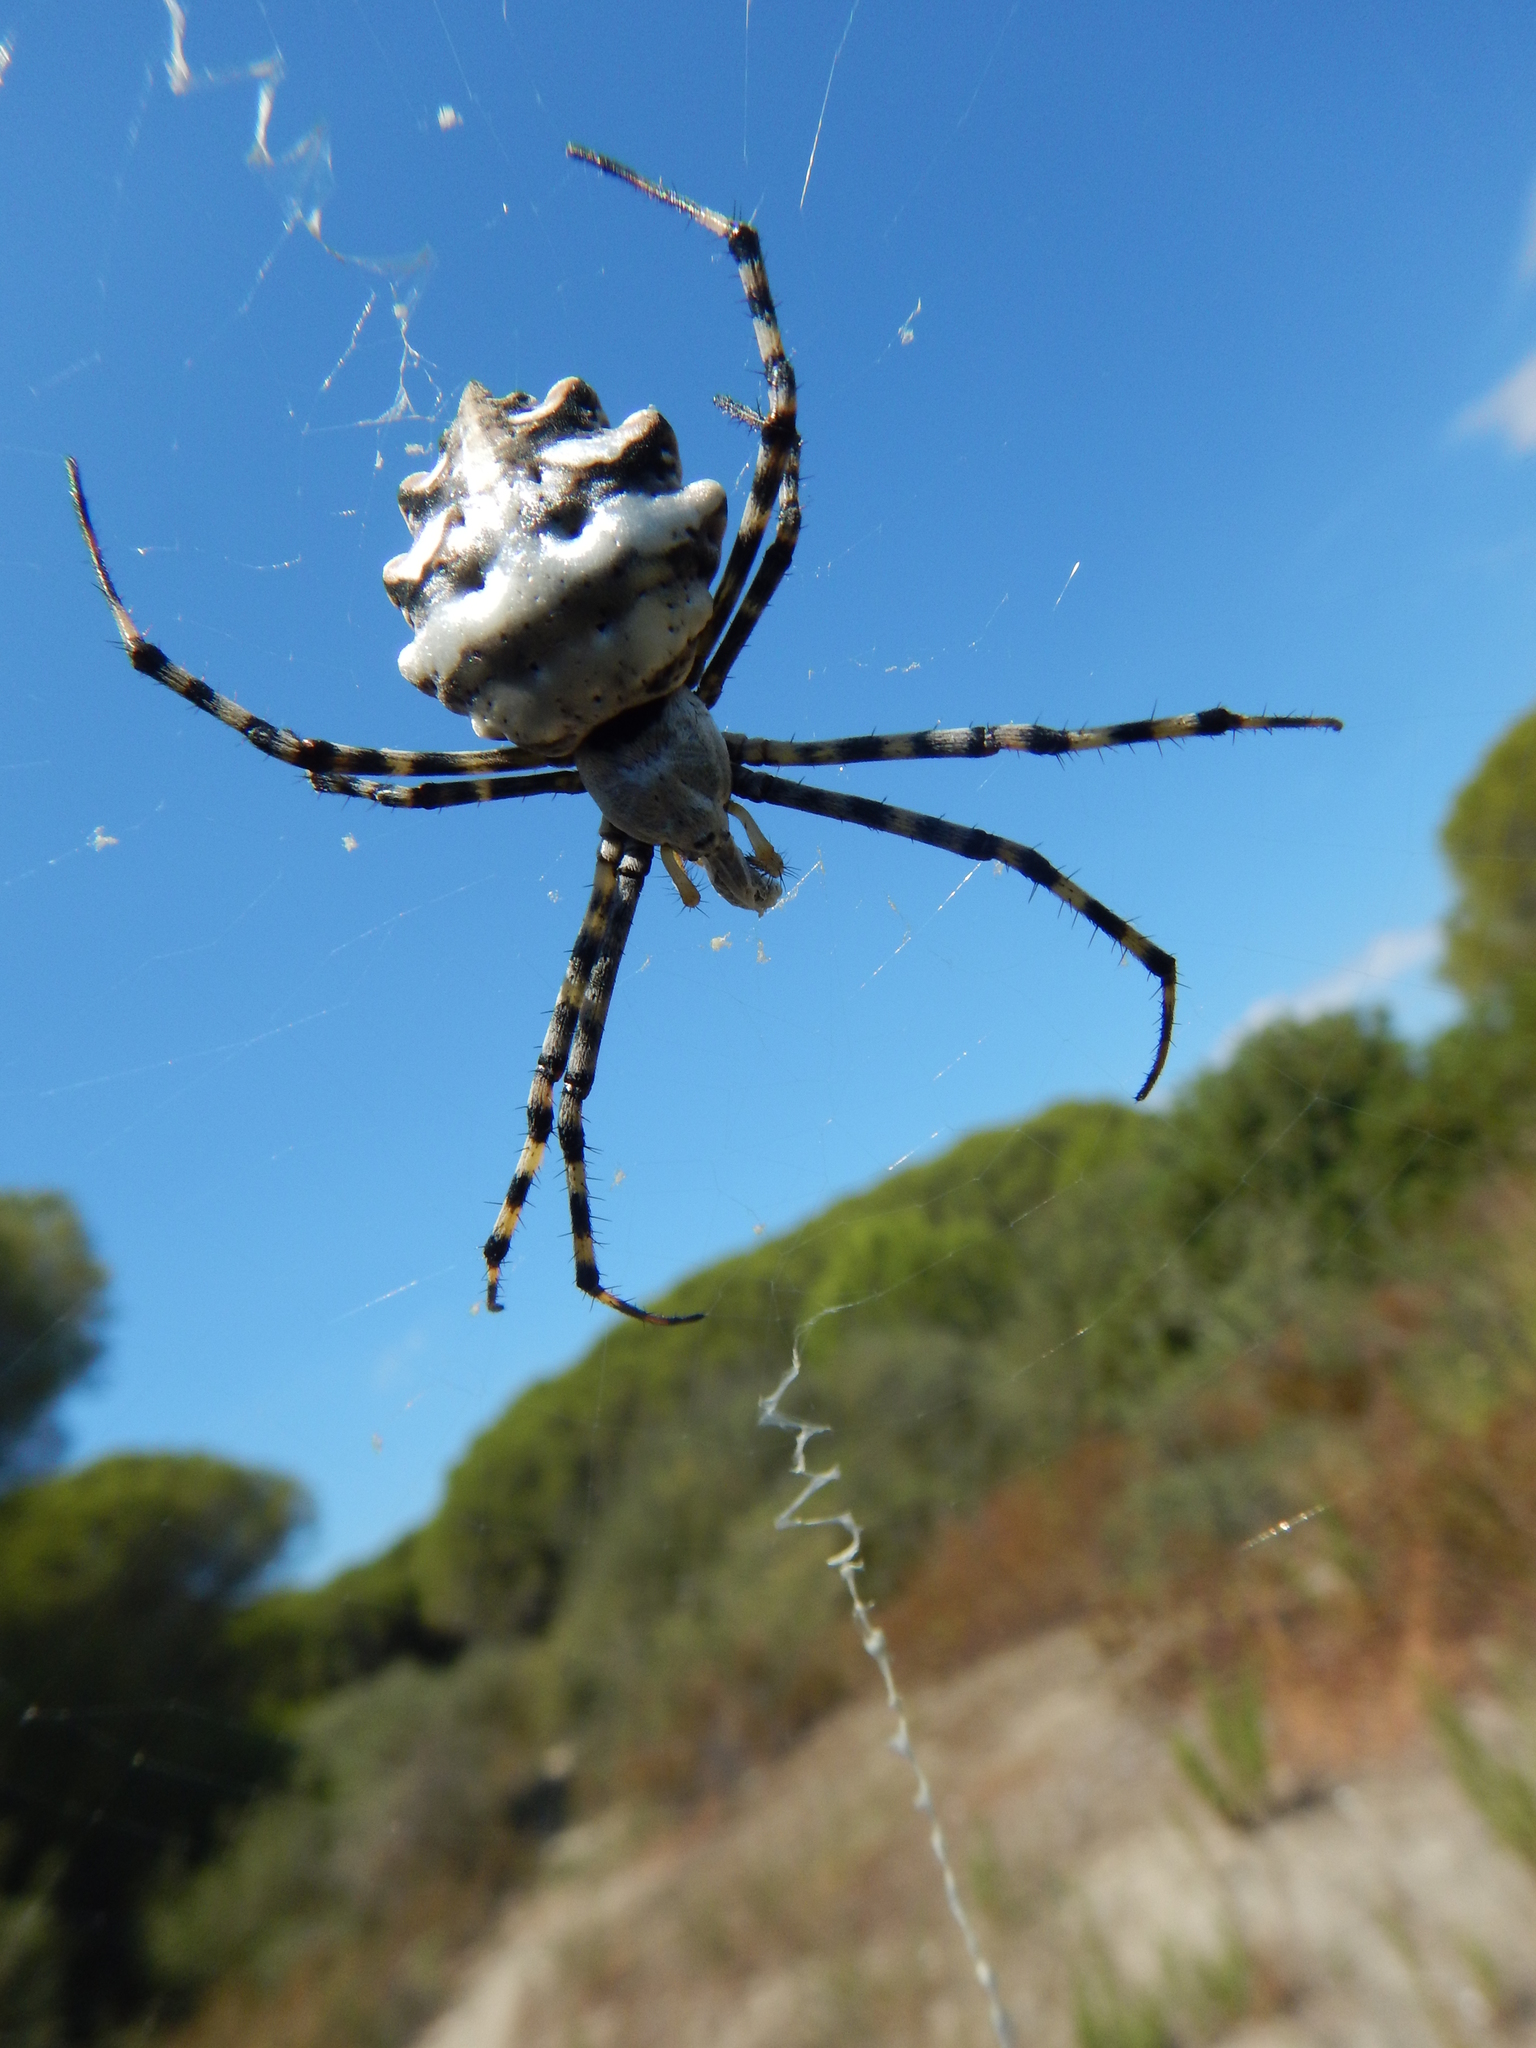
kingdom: Animalia
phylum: Arthropoda
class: Arachnida
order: Araneae
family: Araneidae
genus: Argiope
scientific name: Argiope lobata
